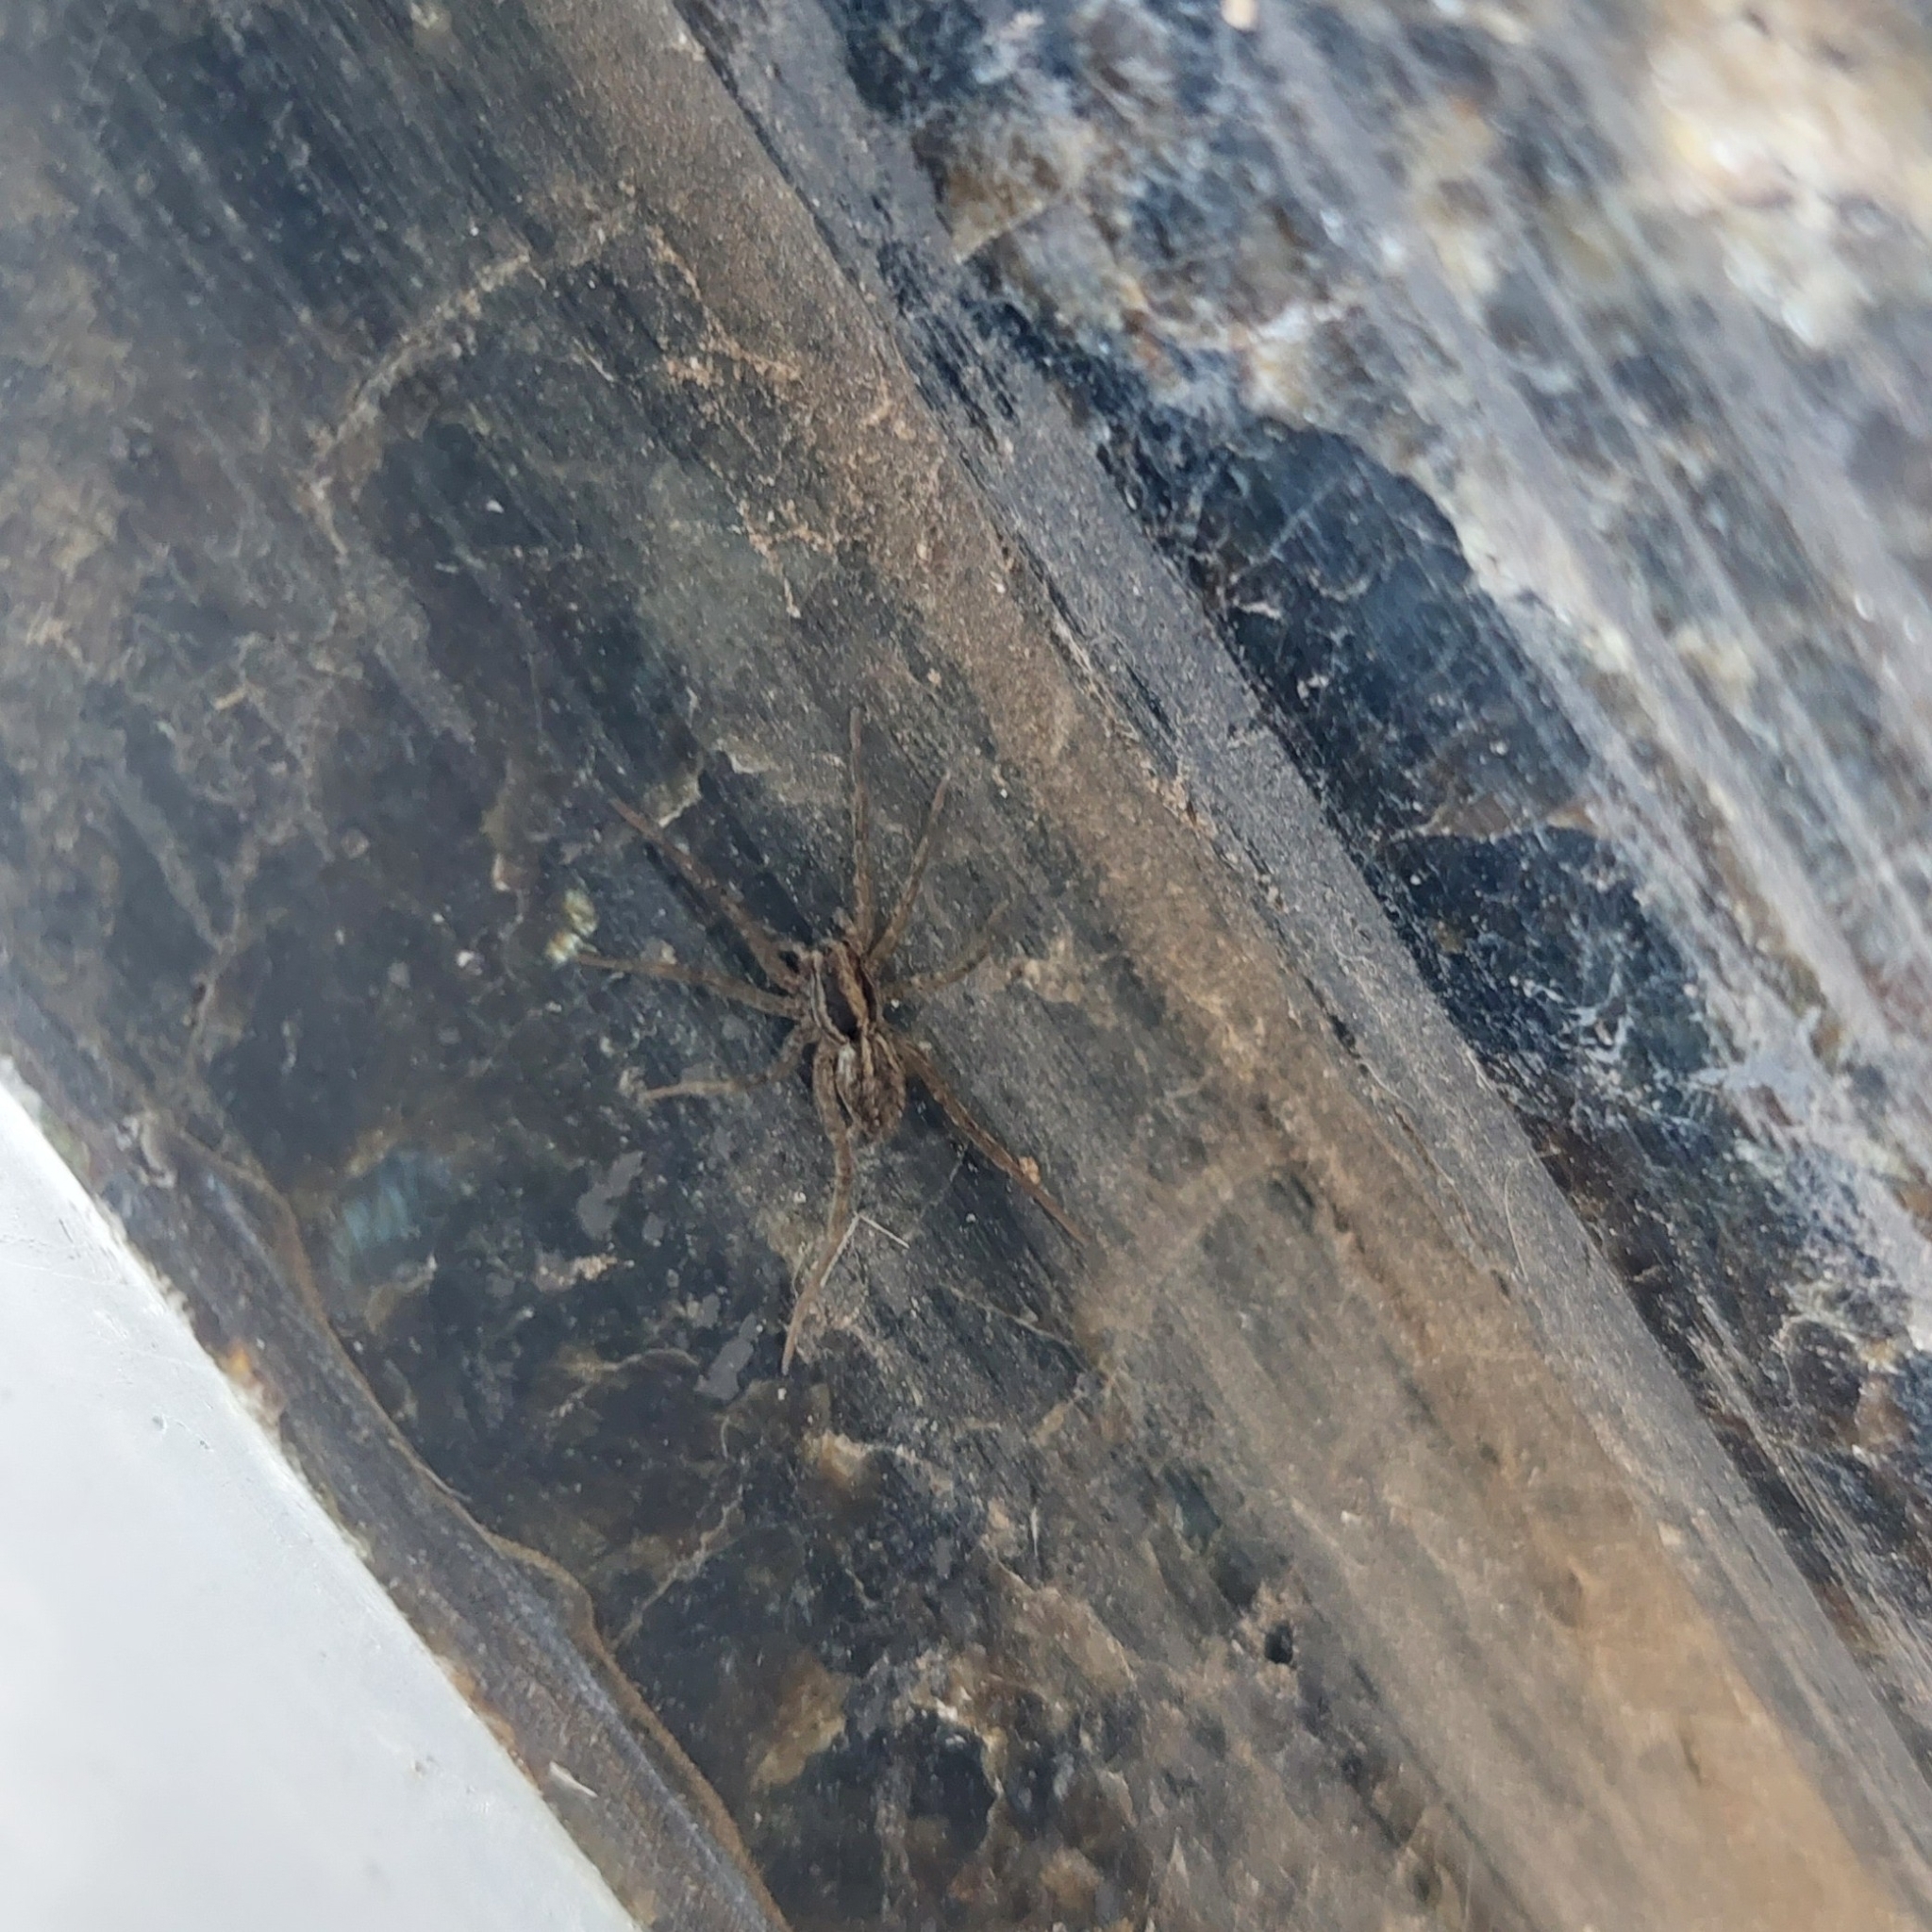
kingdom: Animalia
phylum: Arthropoda
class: Arachnida
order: Araneae
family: Lycosidae
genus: Alopecosa
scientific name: Alopecosa moesta
